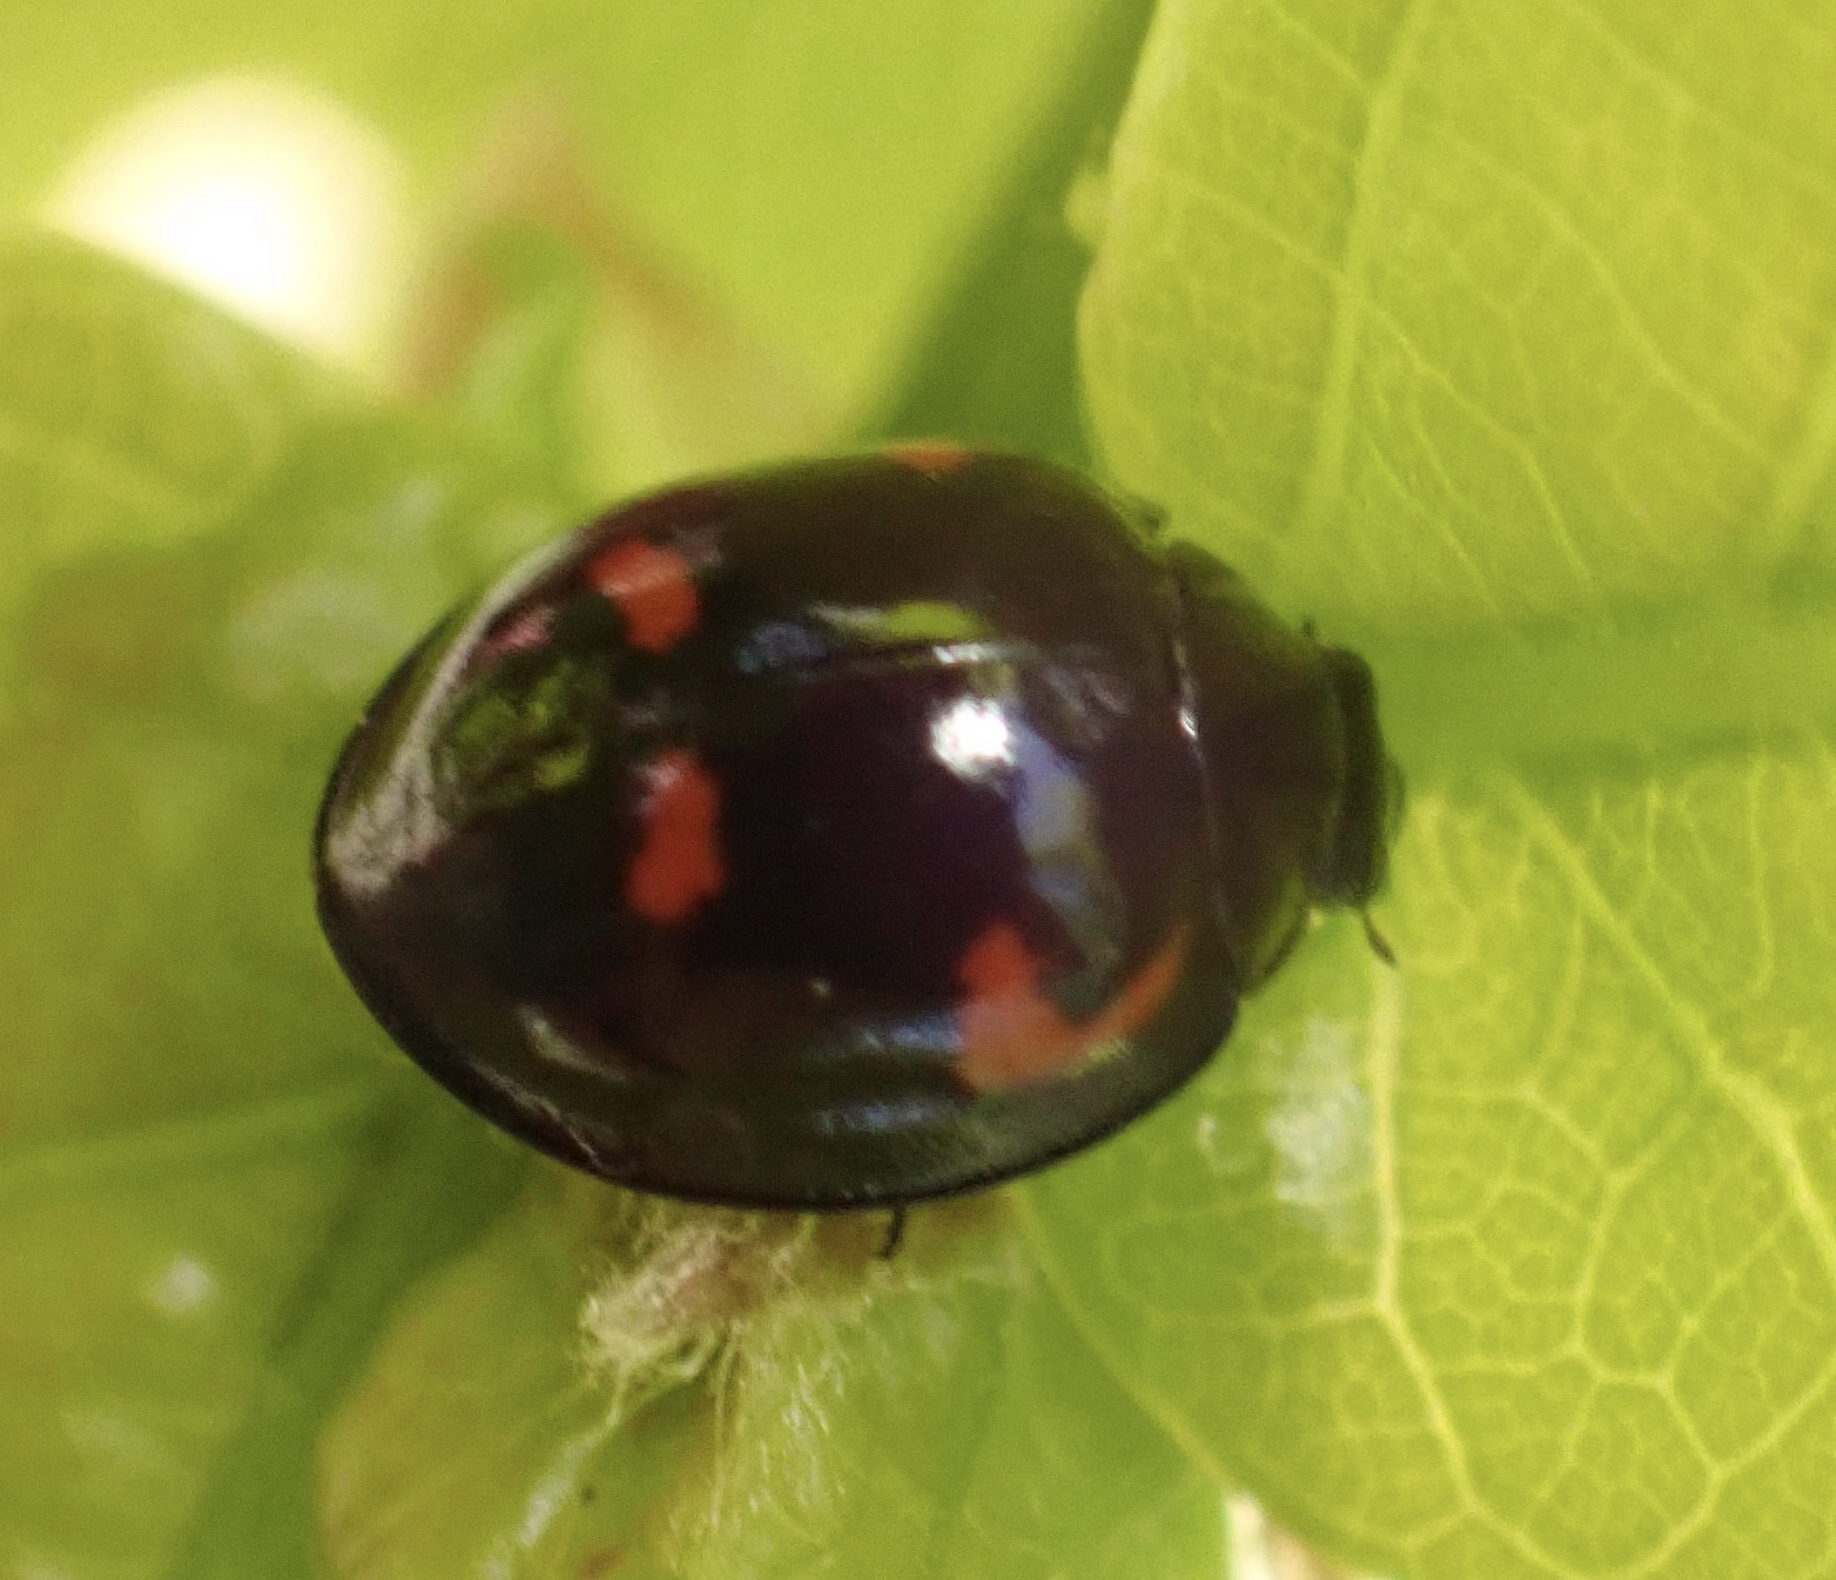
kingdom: Animalia
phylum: Arthropoda
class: Insecta
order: Coleoptera
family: Coccinellidae
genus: Brumus
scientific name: Brumus quadripustulatus
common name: Ladybird beetle
